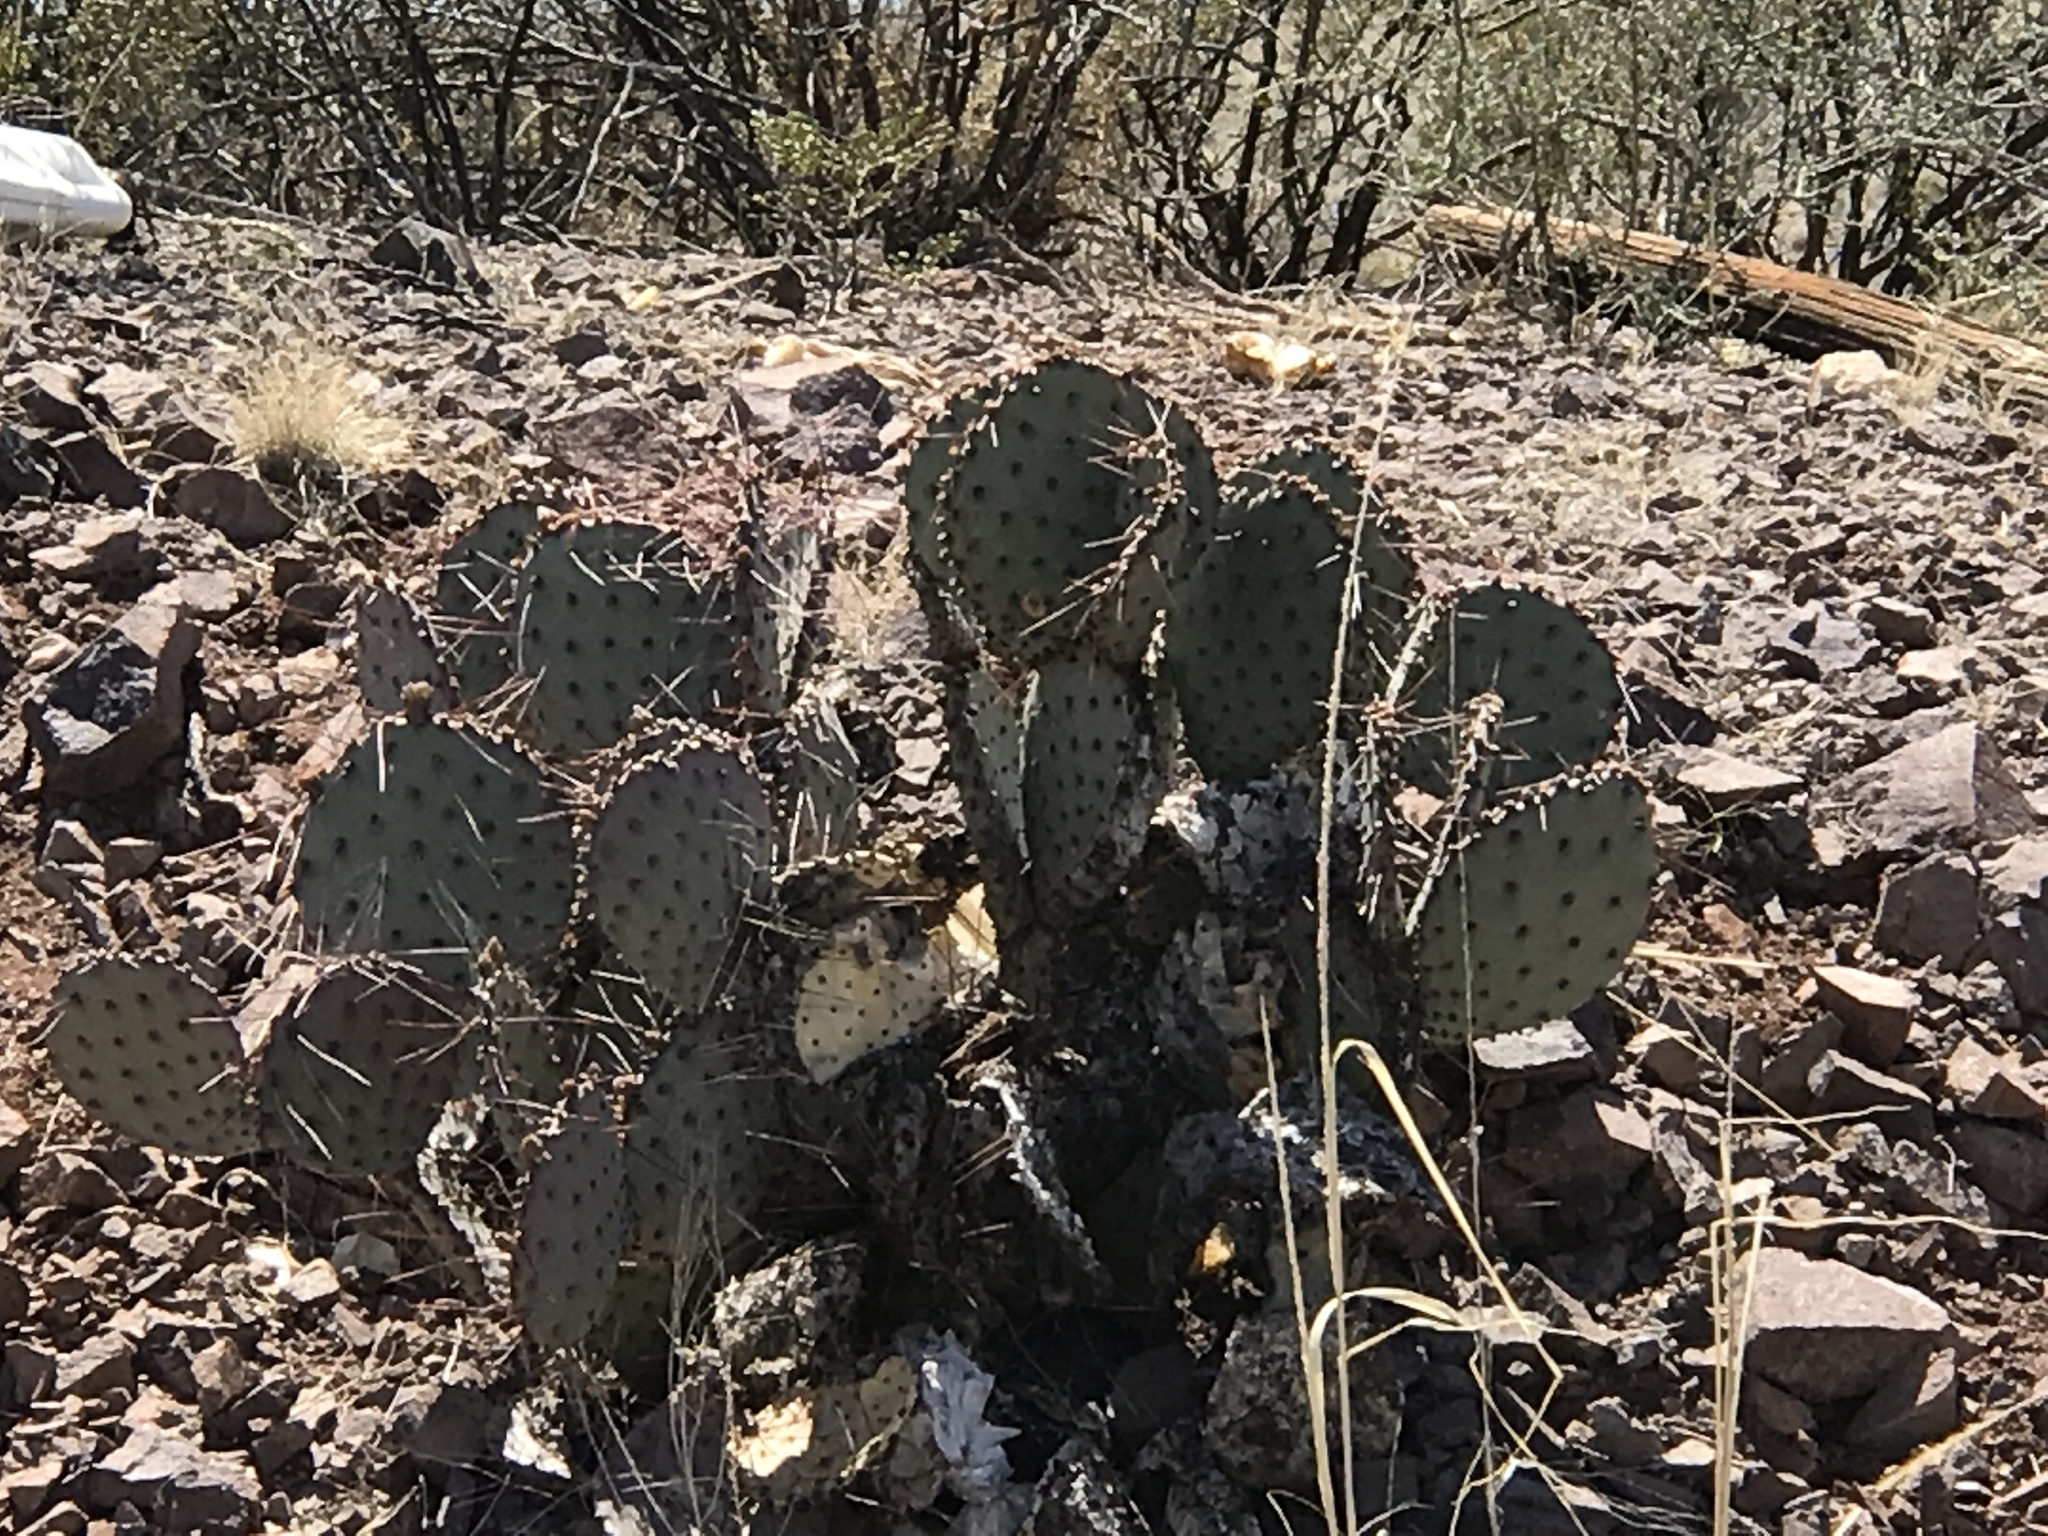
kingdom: Plantae
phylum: Tracheophyta
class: Magnoliopsida
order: Caryophyllales
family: Cactaceae
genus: Opuntia
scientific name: Opuntia macrocentra
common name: Purple prickly-pear
